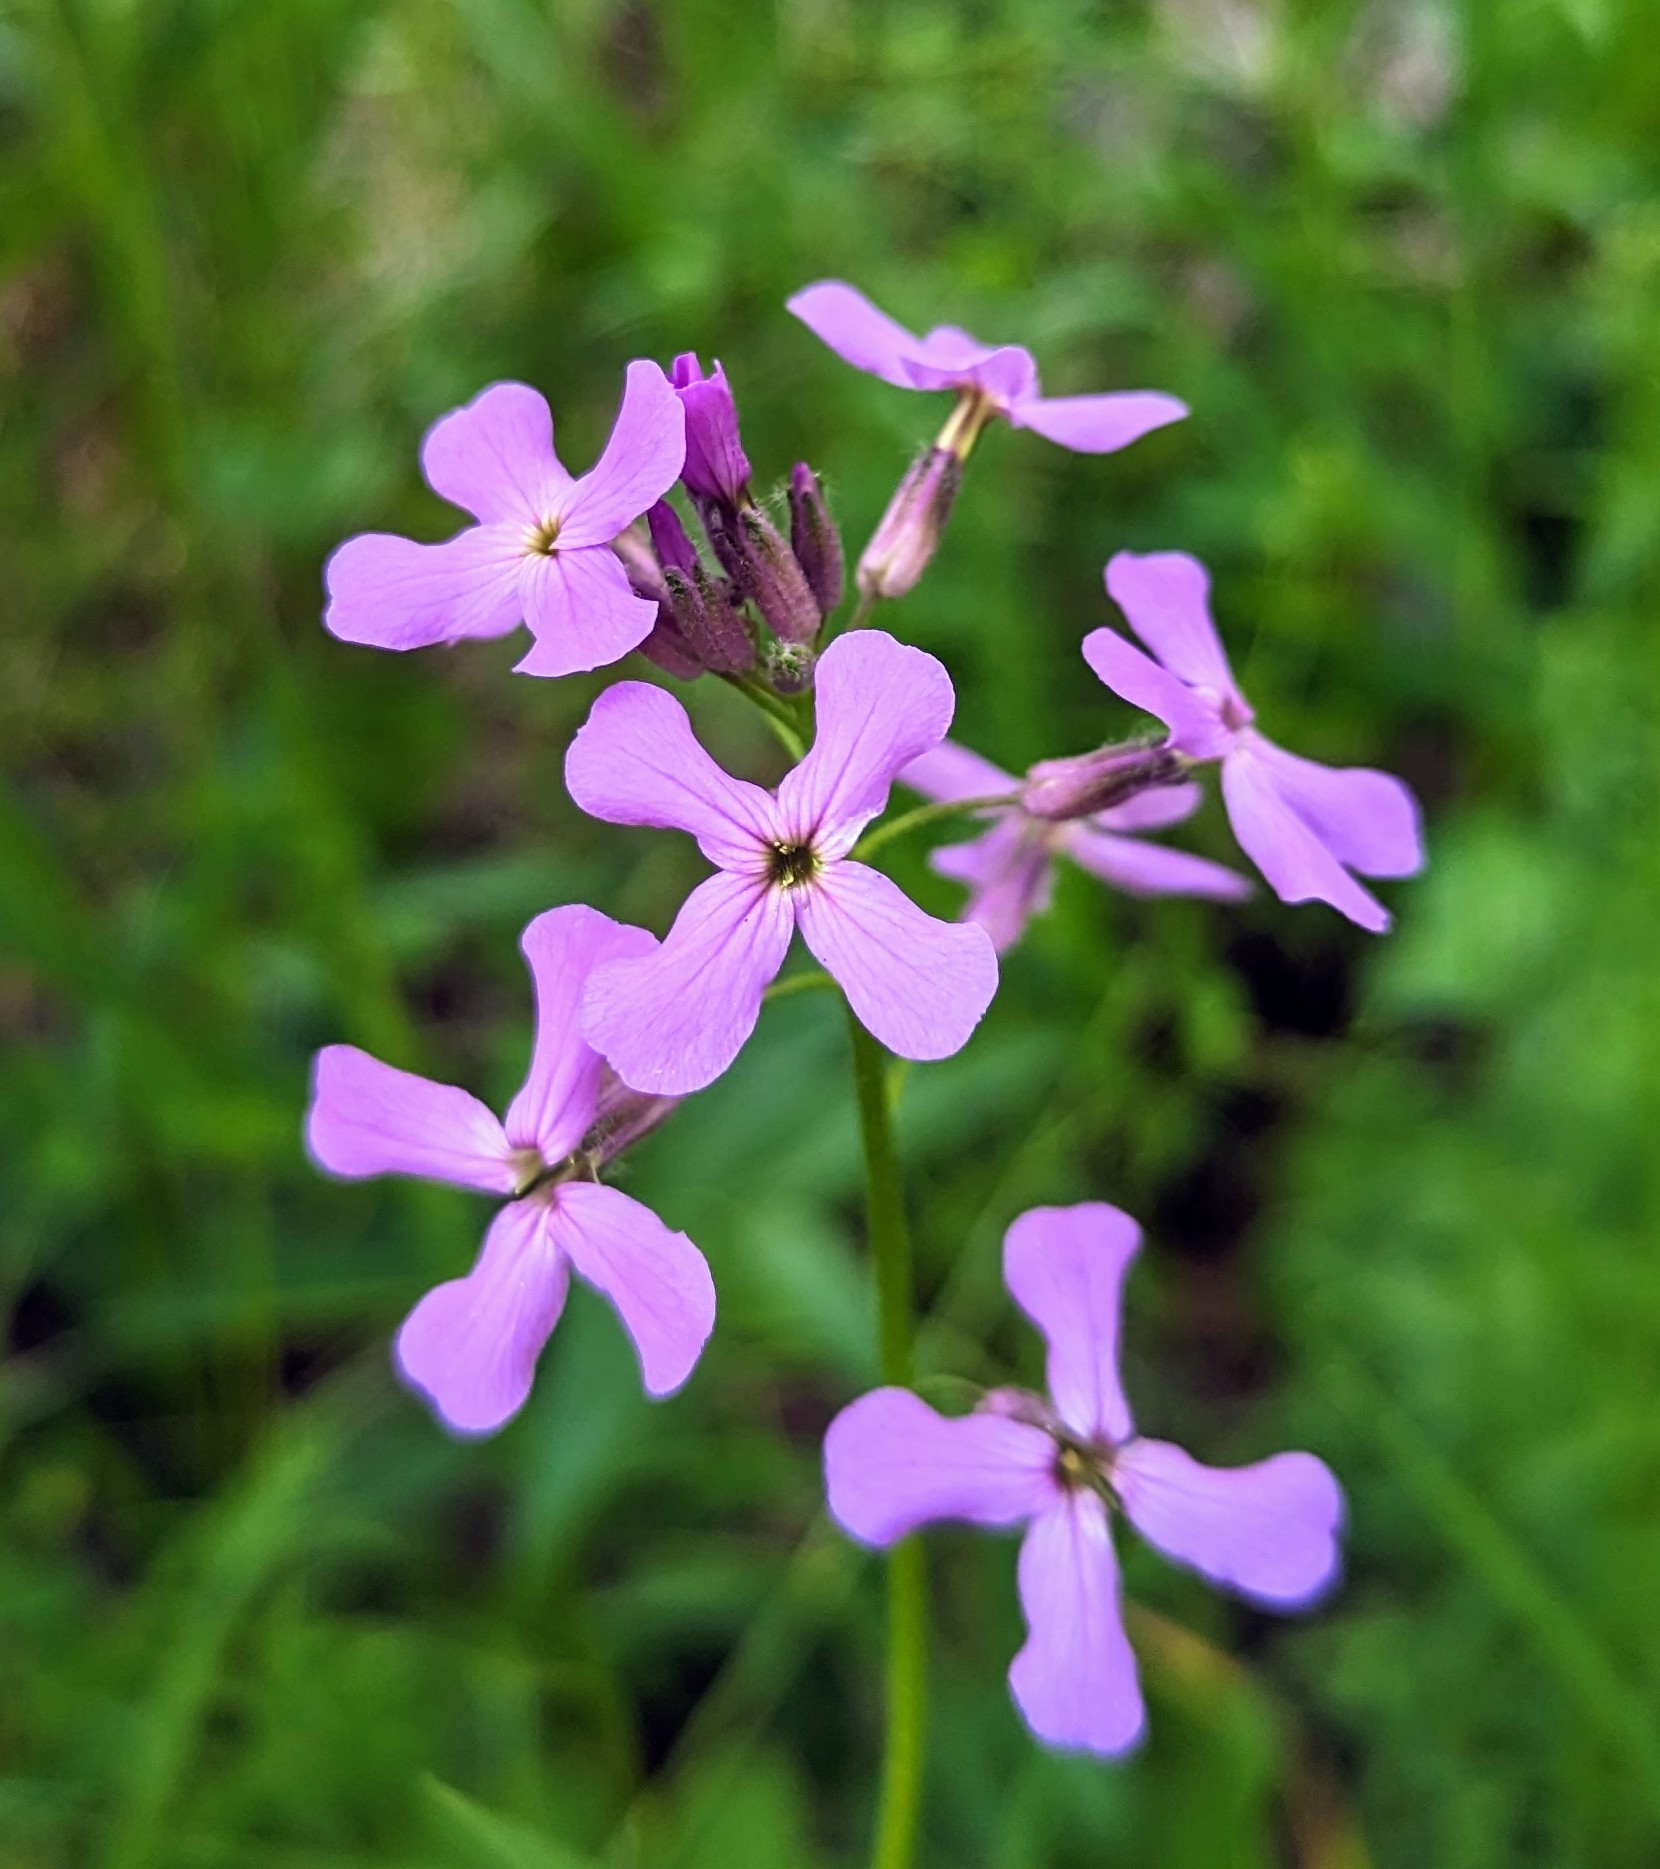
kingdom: Plantae
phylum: Tracheophyta
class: Magnoliopsida
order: Brassicales
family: Brassicaceae
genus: Hesperis
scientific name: Hesperis matronalis
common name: Dame's-violet
